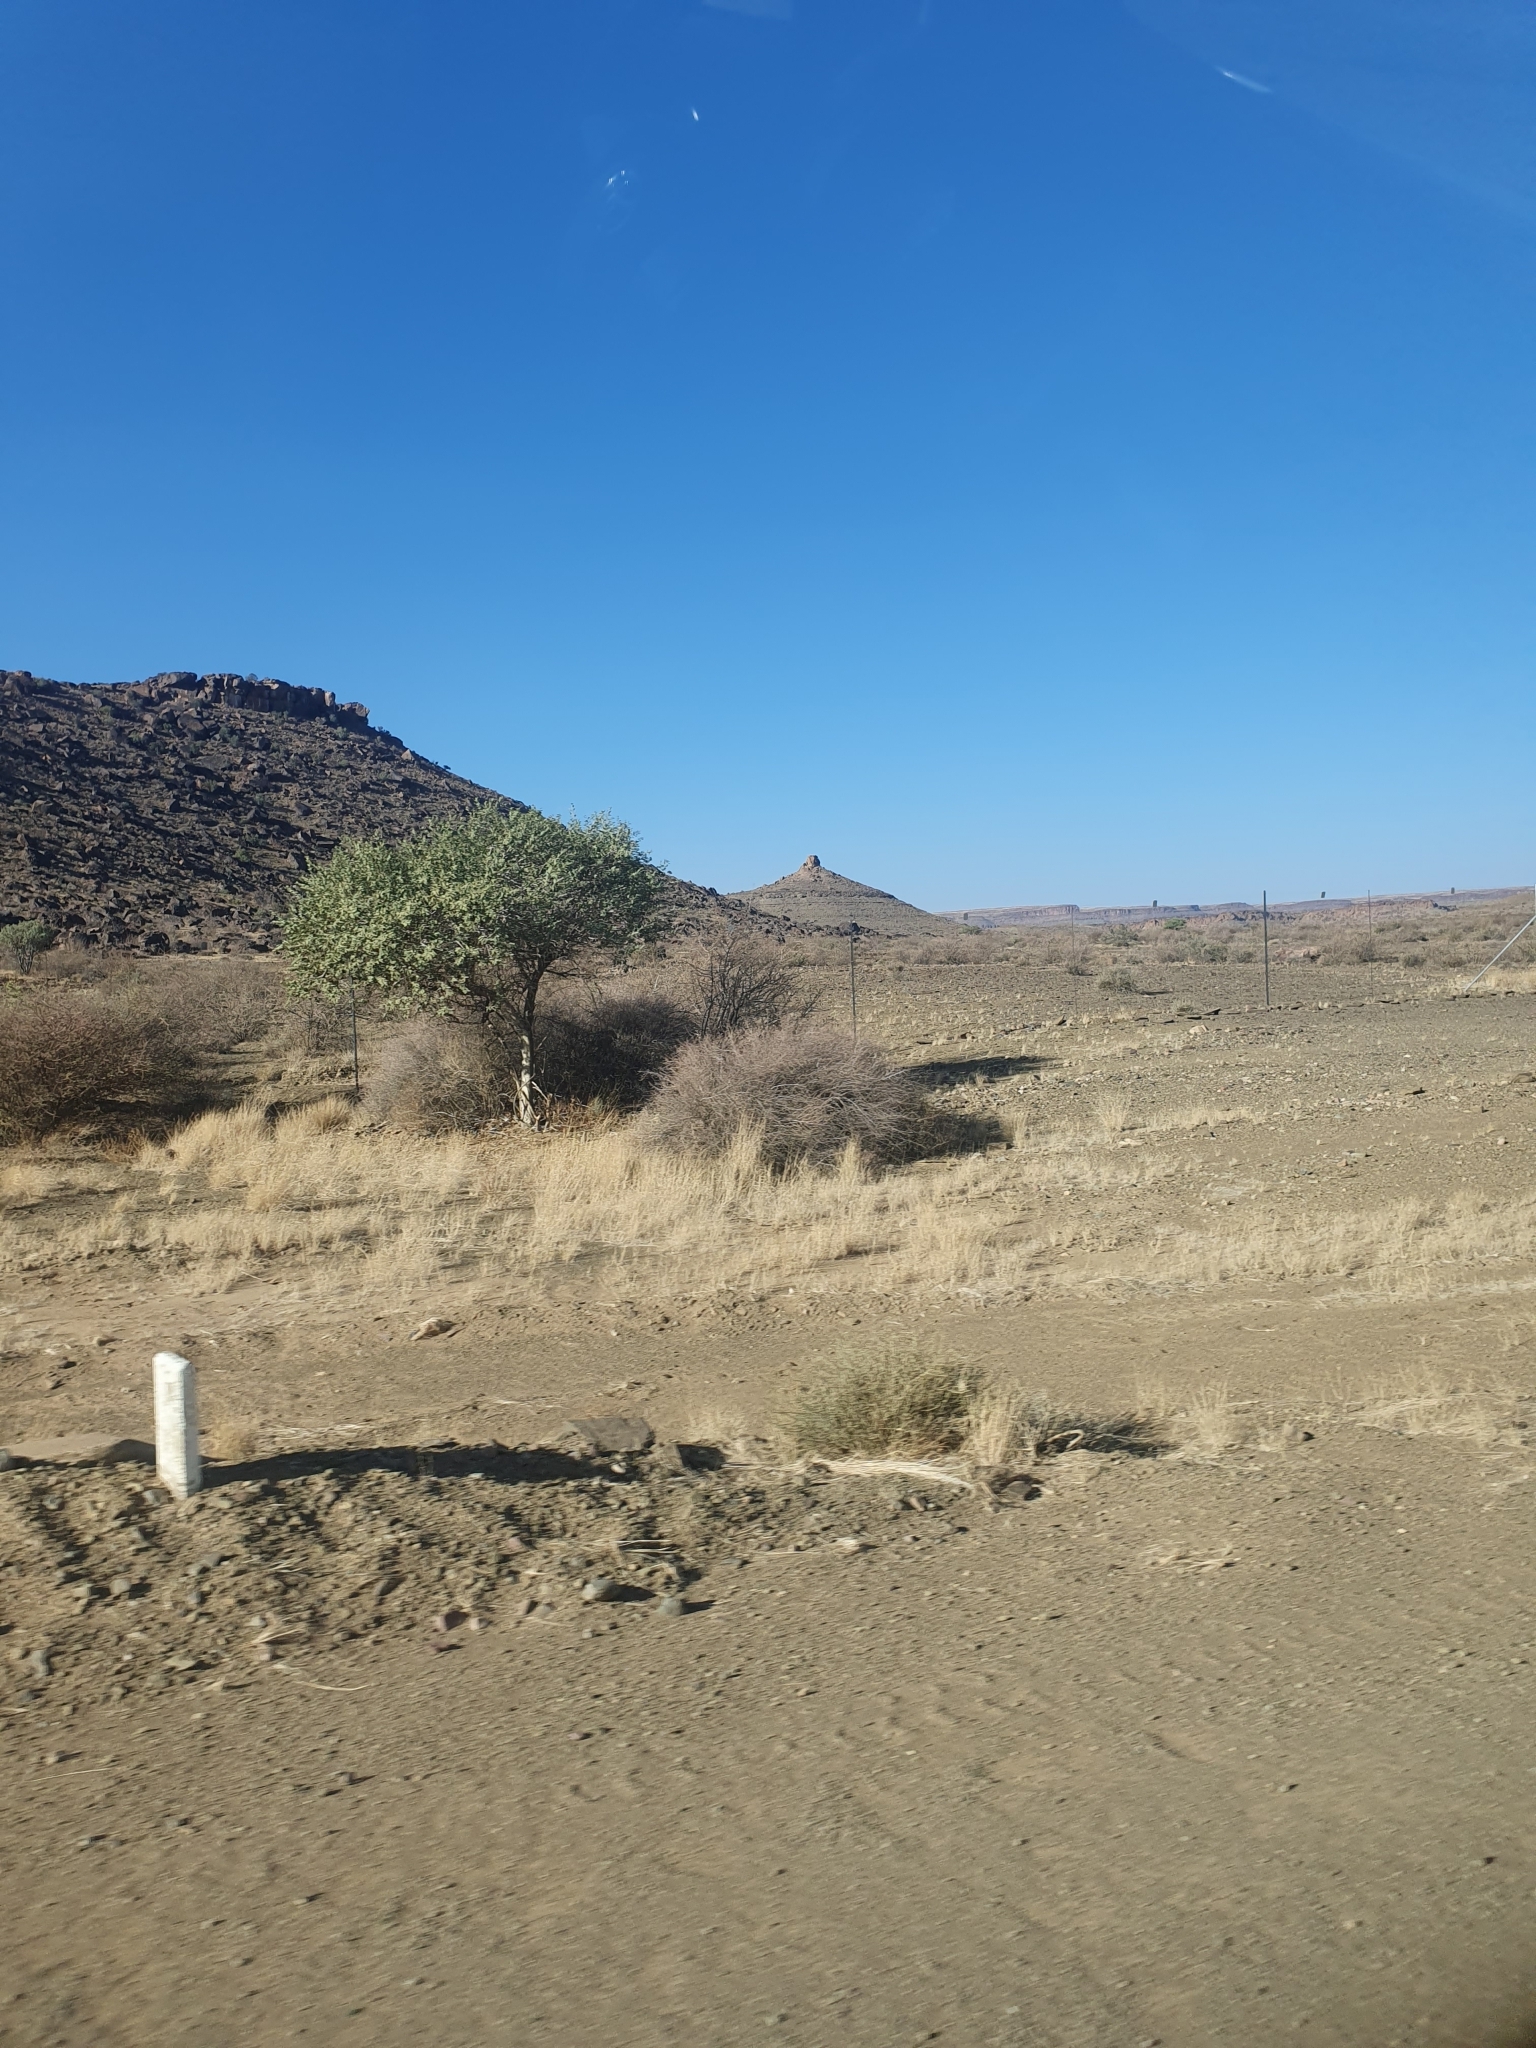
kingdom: Plantae
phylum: Tracheophyta
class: Magnoliopsida
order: Brassicales
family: Capparaceae
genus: Maerua
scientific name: Maerua schinzii
